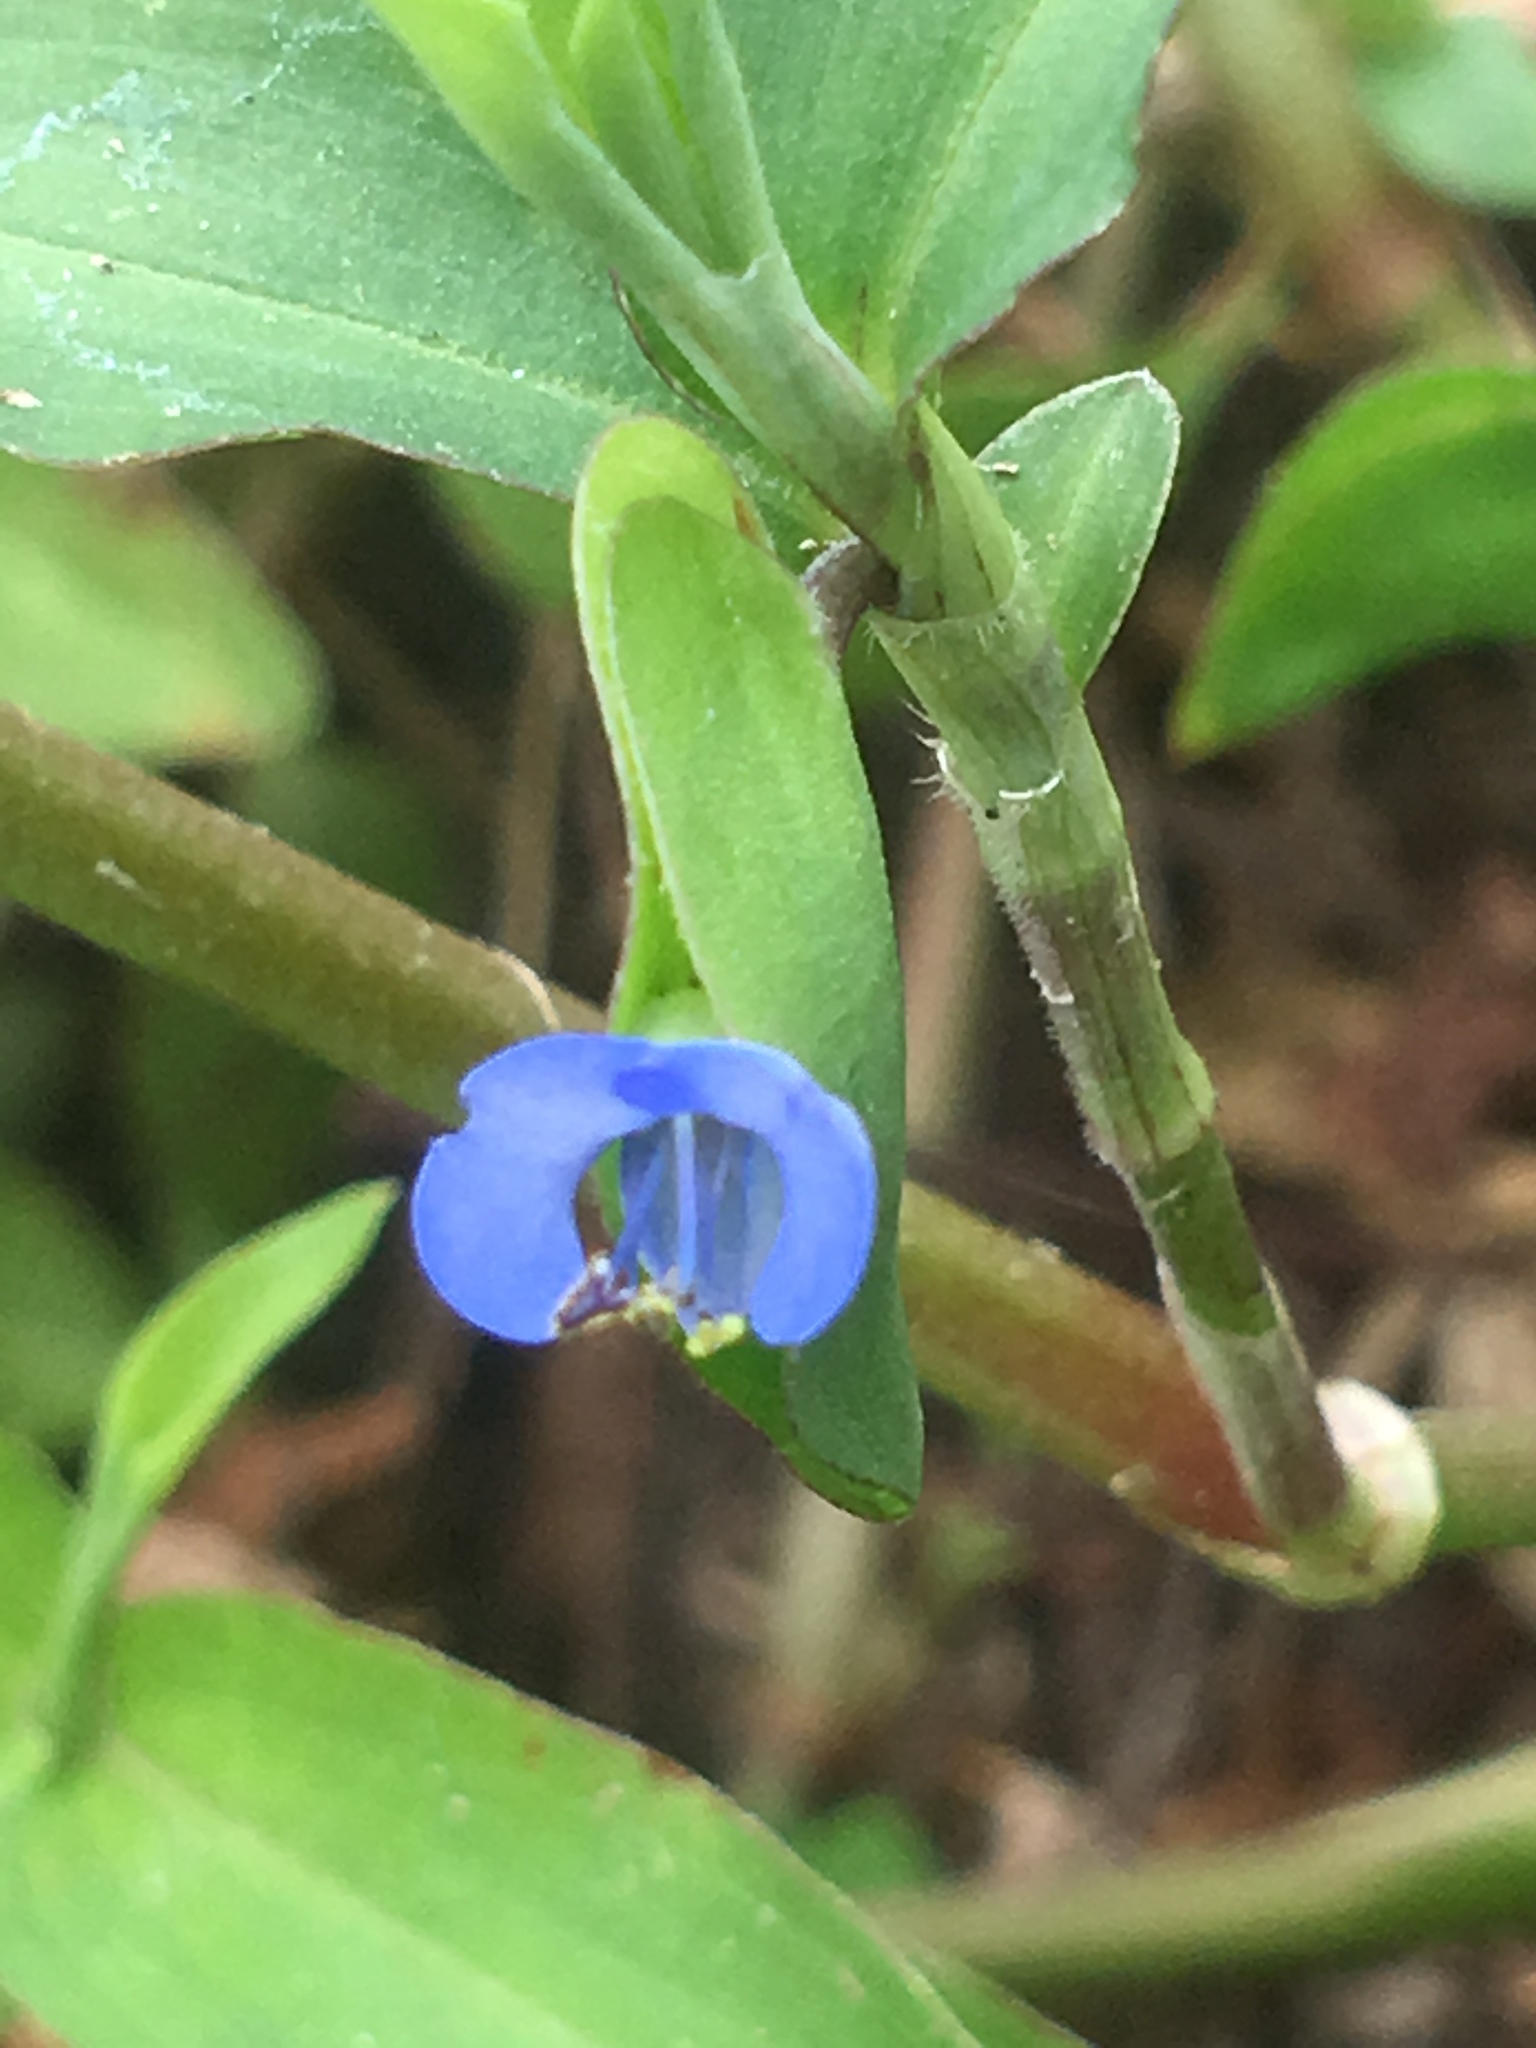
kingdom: Plantae
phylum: Tracheophyta
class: Liliopsida
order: Commelinales
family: Commelinaceae
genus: Commelina
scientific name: Commelina diffusa
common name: Climbing dayflower
